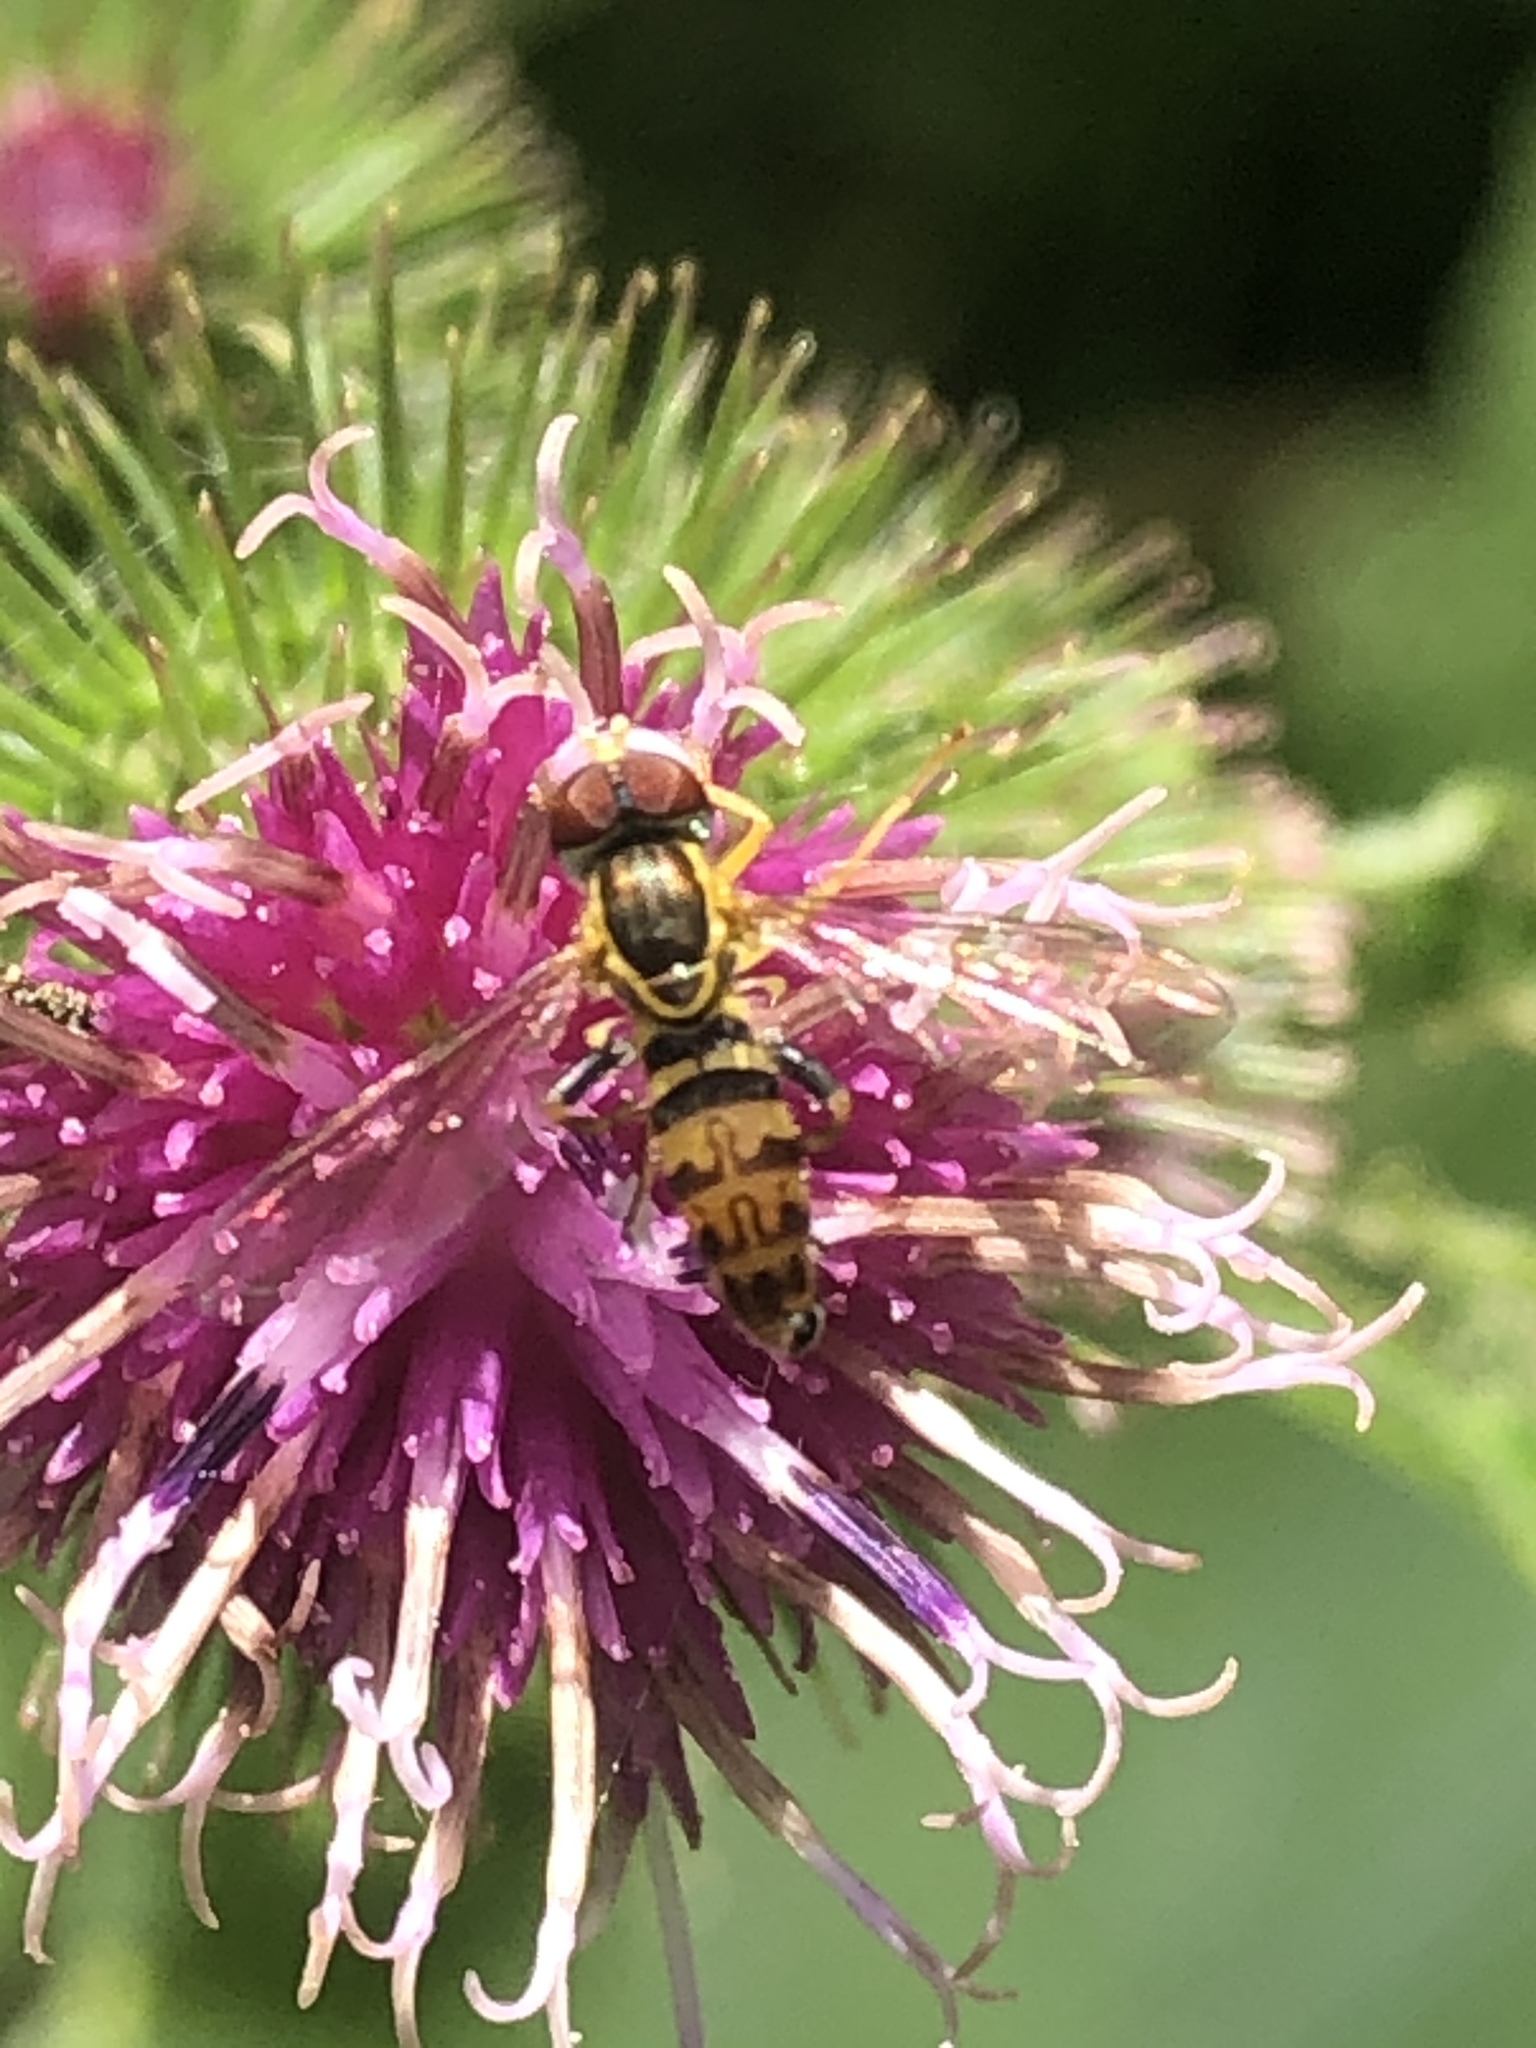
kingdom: Animalia
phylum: Arthropoda
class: Insecta
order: Diptera
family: Syrphidae
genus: Toxomerus
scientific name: Toxomerus geminatus
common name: Eastern calligrapher
